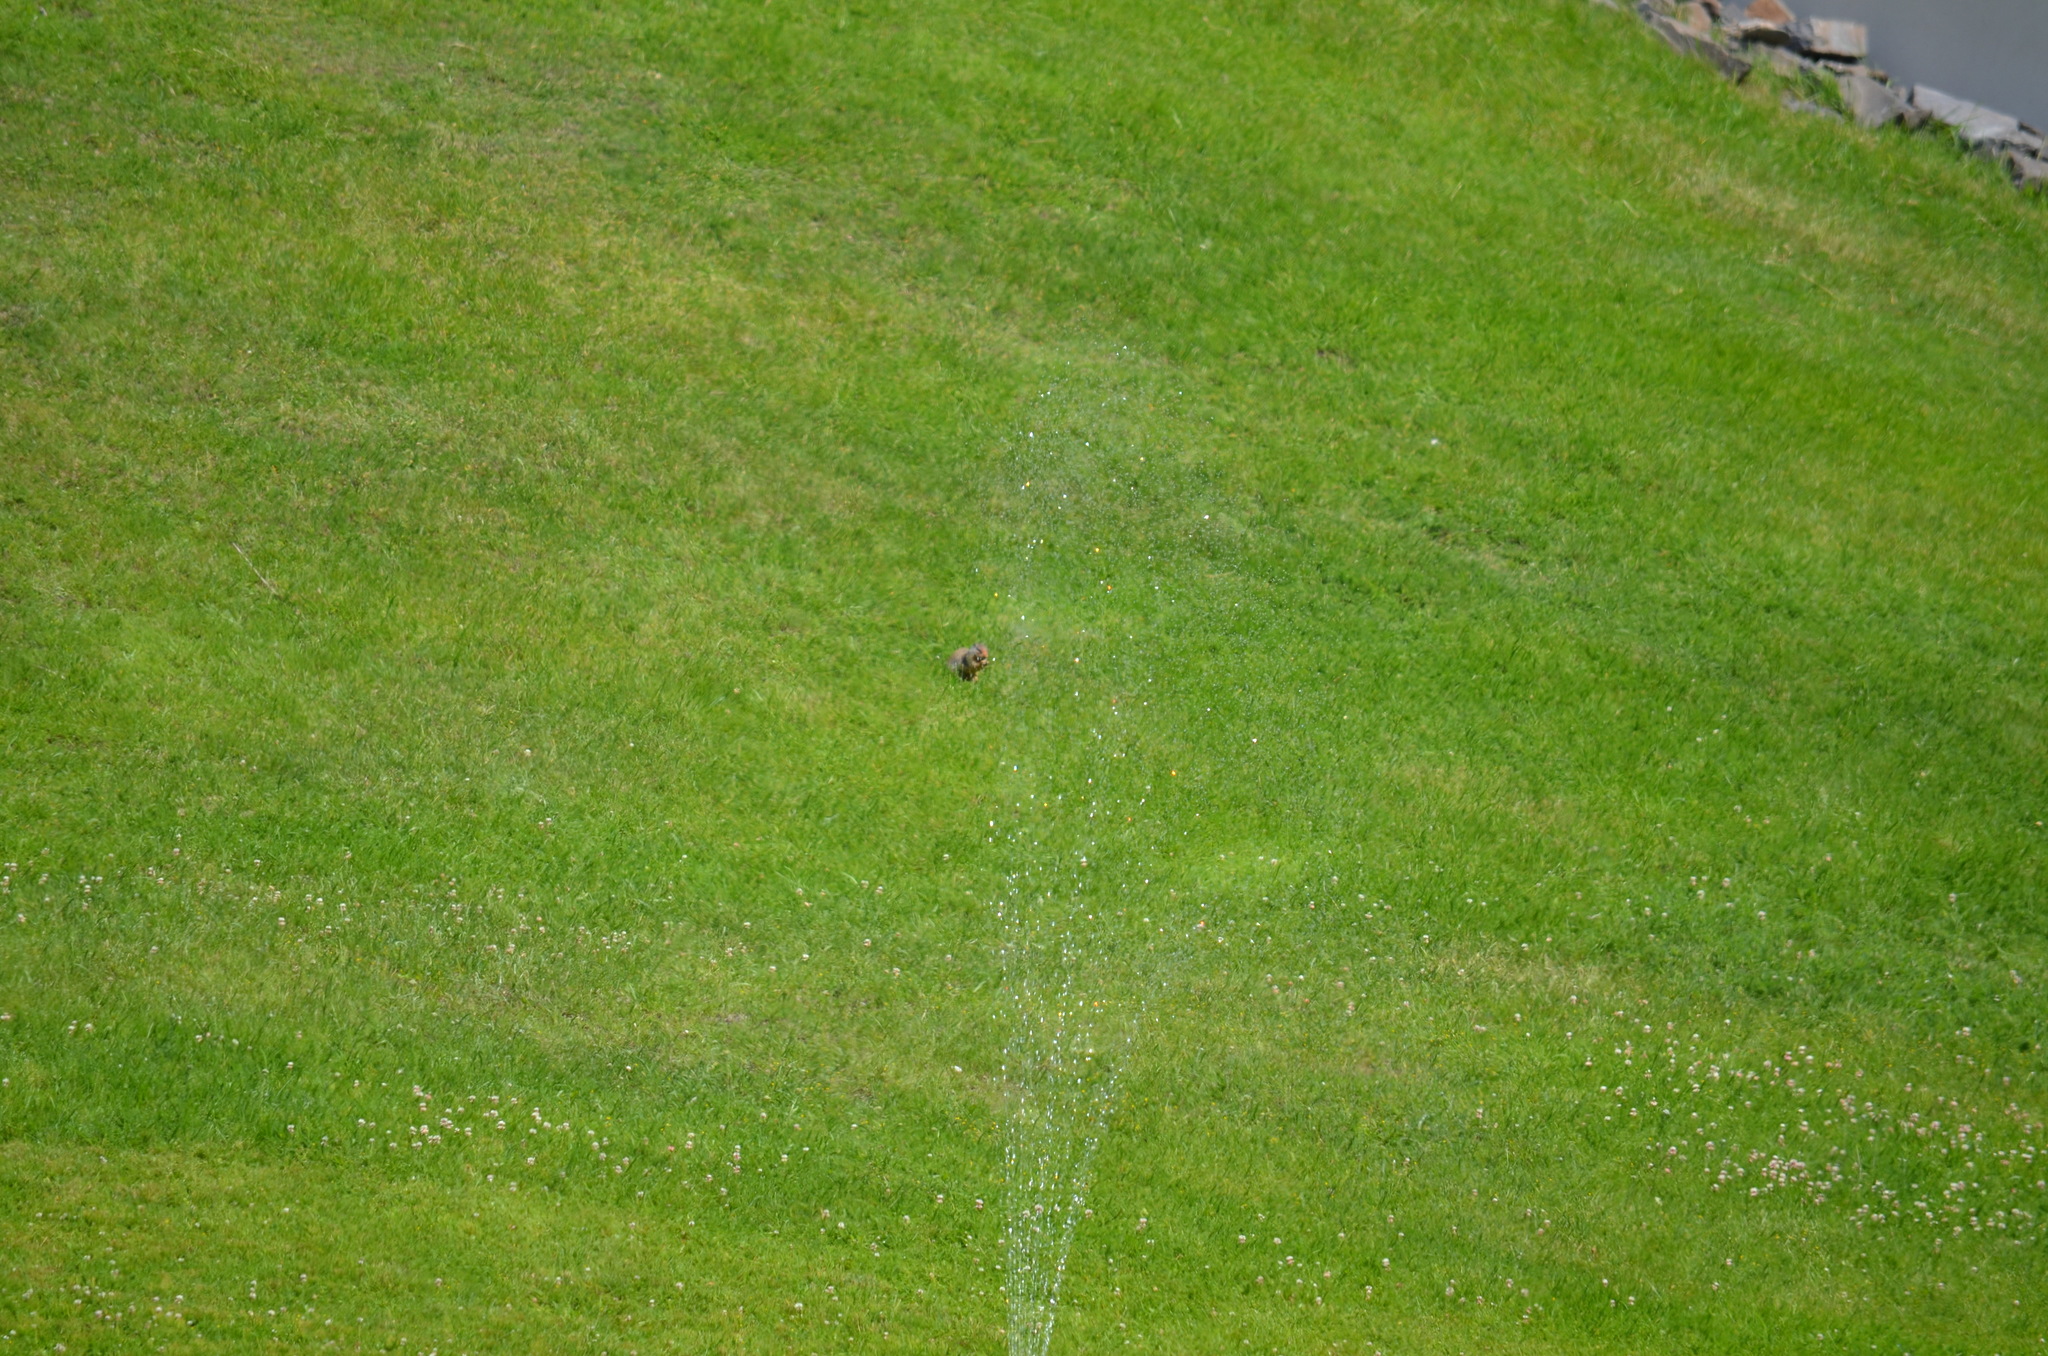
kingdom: Animalia
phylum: Chordata
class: Mammalia
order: Rodentia
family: Sciuridae
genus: Urocitellus
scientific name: Urocitellus columbianus
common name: Columbian ground squirrel
